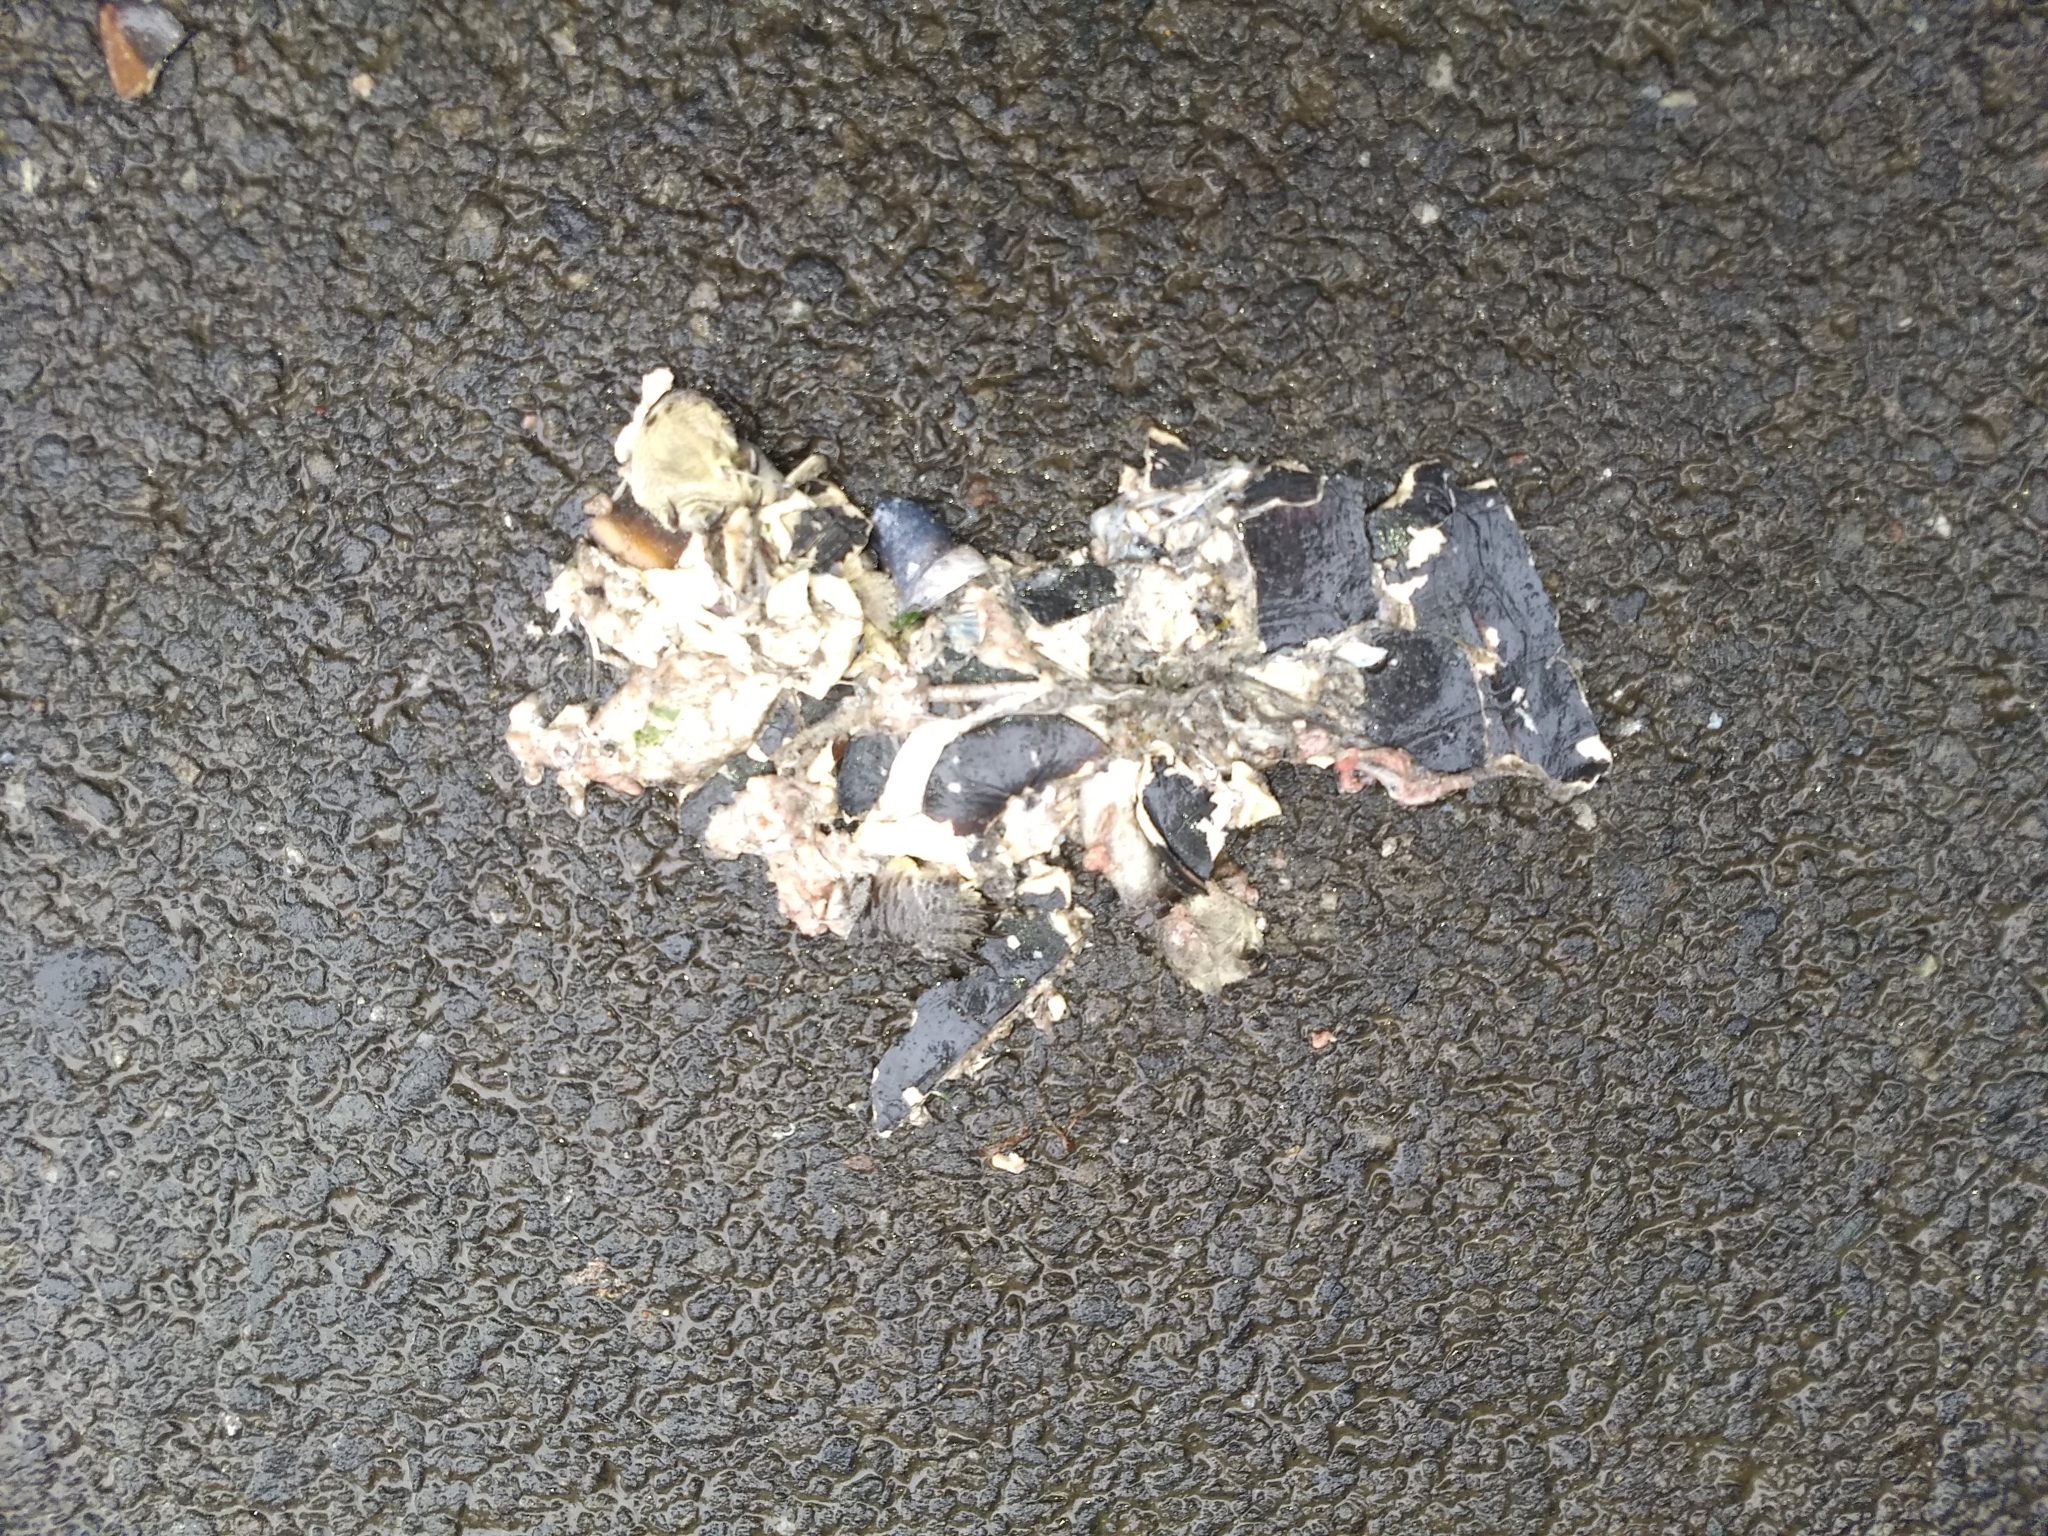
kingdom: Animalia
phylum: Chordata
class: Testudines
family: Geoemydidae
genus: Melanochelys
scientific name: Melanochelys trijuga
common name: Indian black turtle
